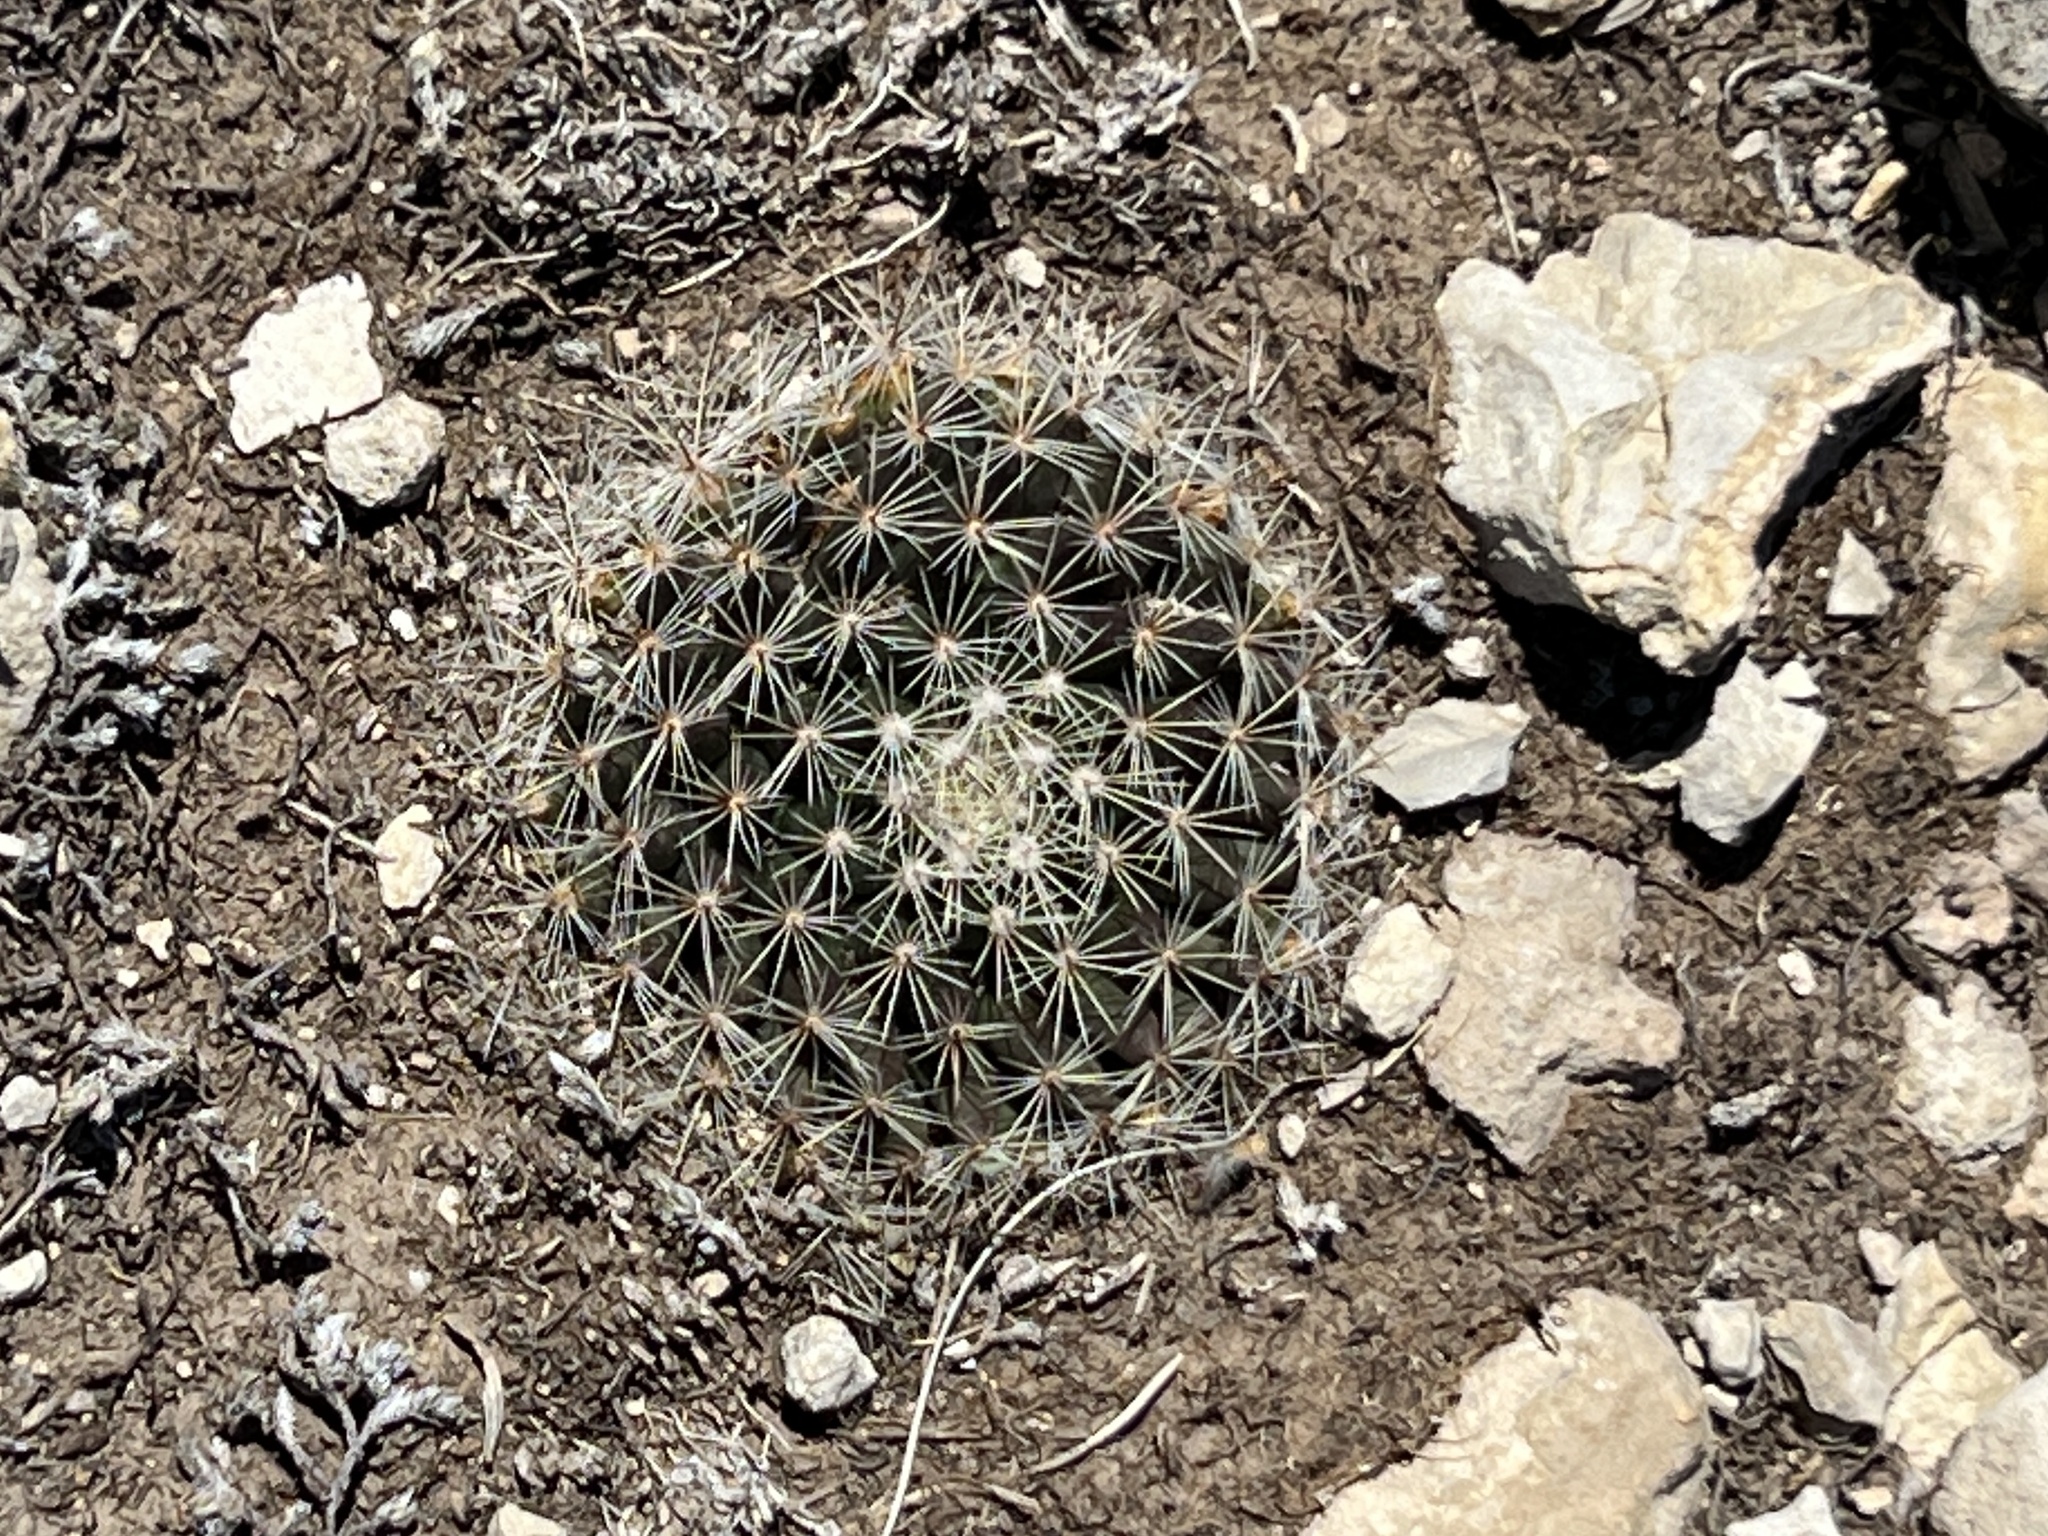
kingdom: Plantae
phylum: Tracheophyta
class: Magnoliopsida
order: Caryophyllales
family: Cactaceae
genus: Mammillaria
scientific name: Mammillaria heyderi
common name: Little nipple cactus
